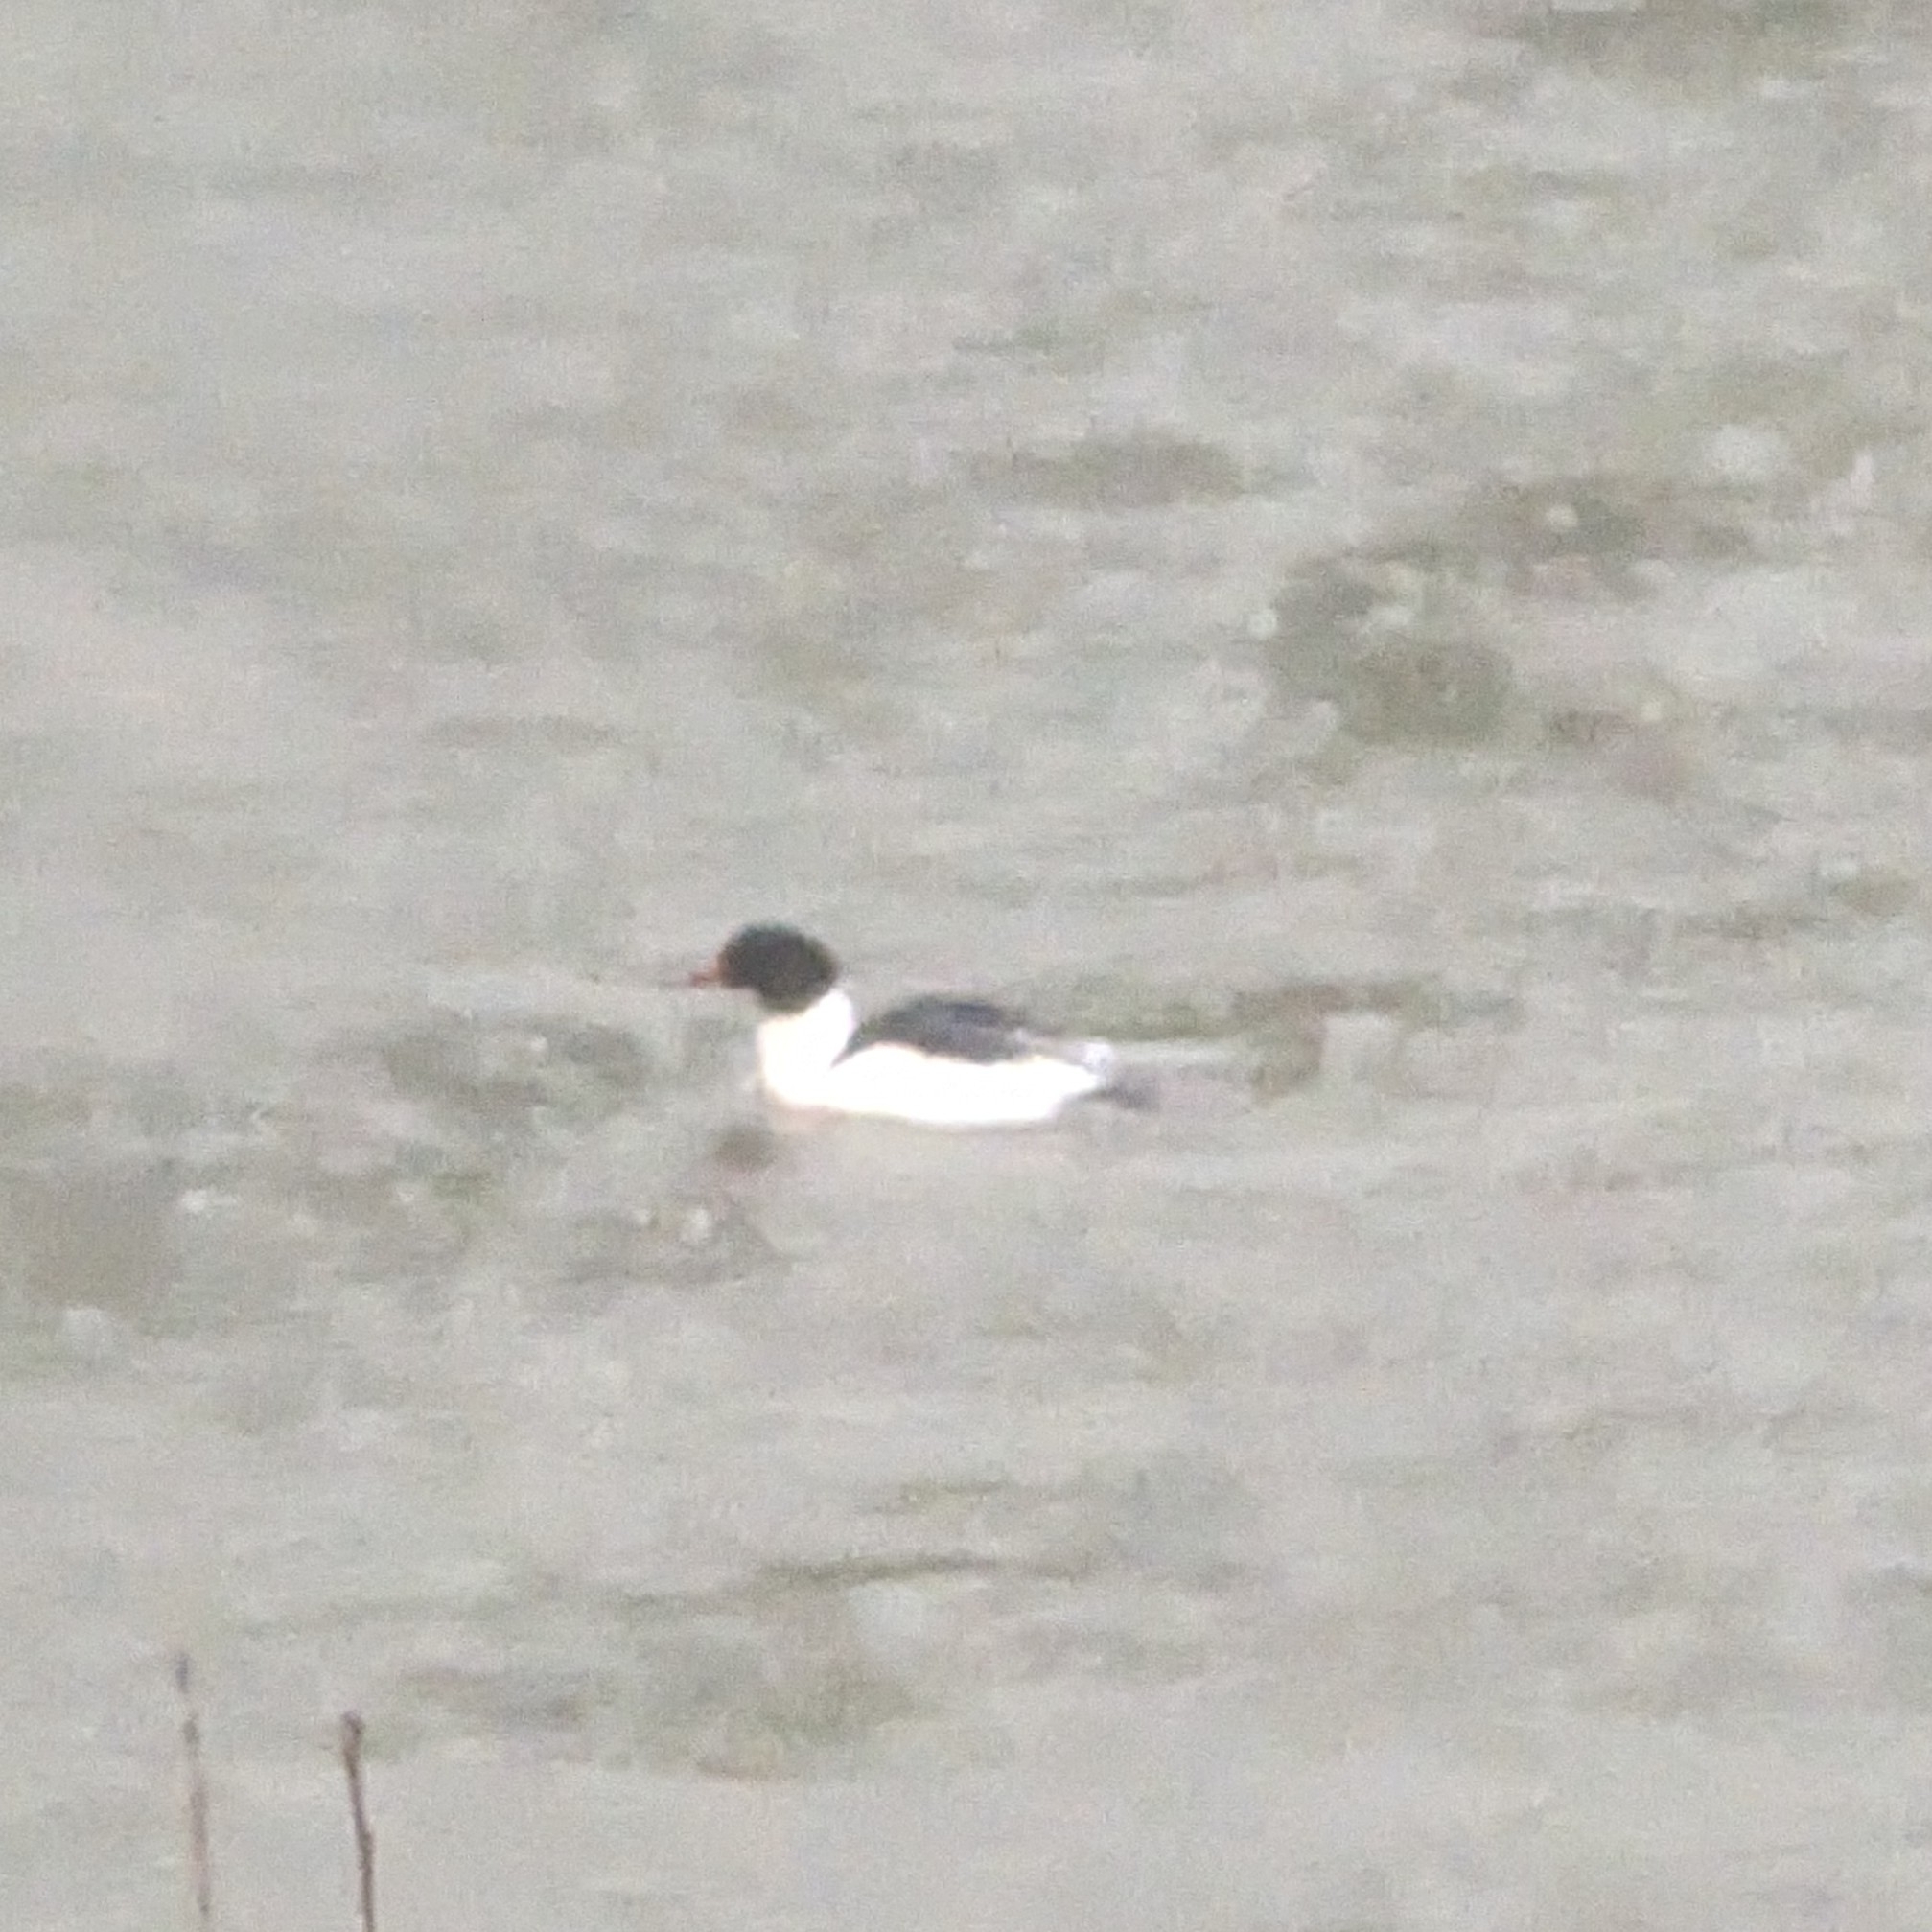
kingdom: Animalia
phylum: Chordata
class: Aves
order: Anseriformes
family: Anatidae
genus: Mergus
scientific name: Mergus merganser
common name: Common merganser
